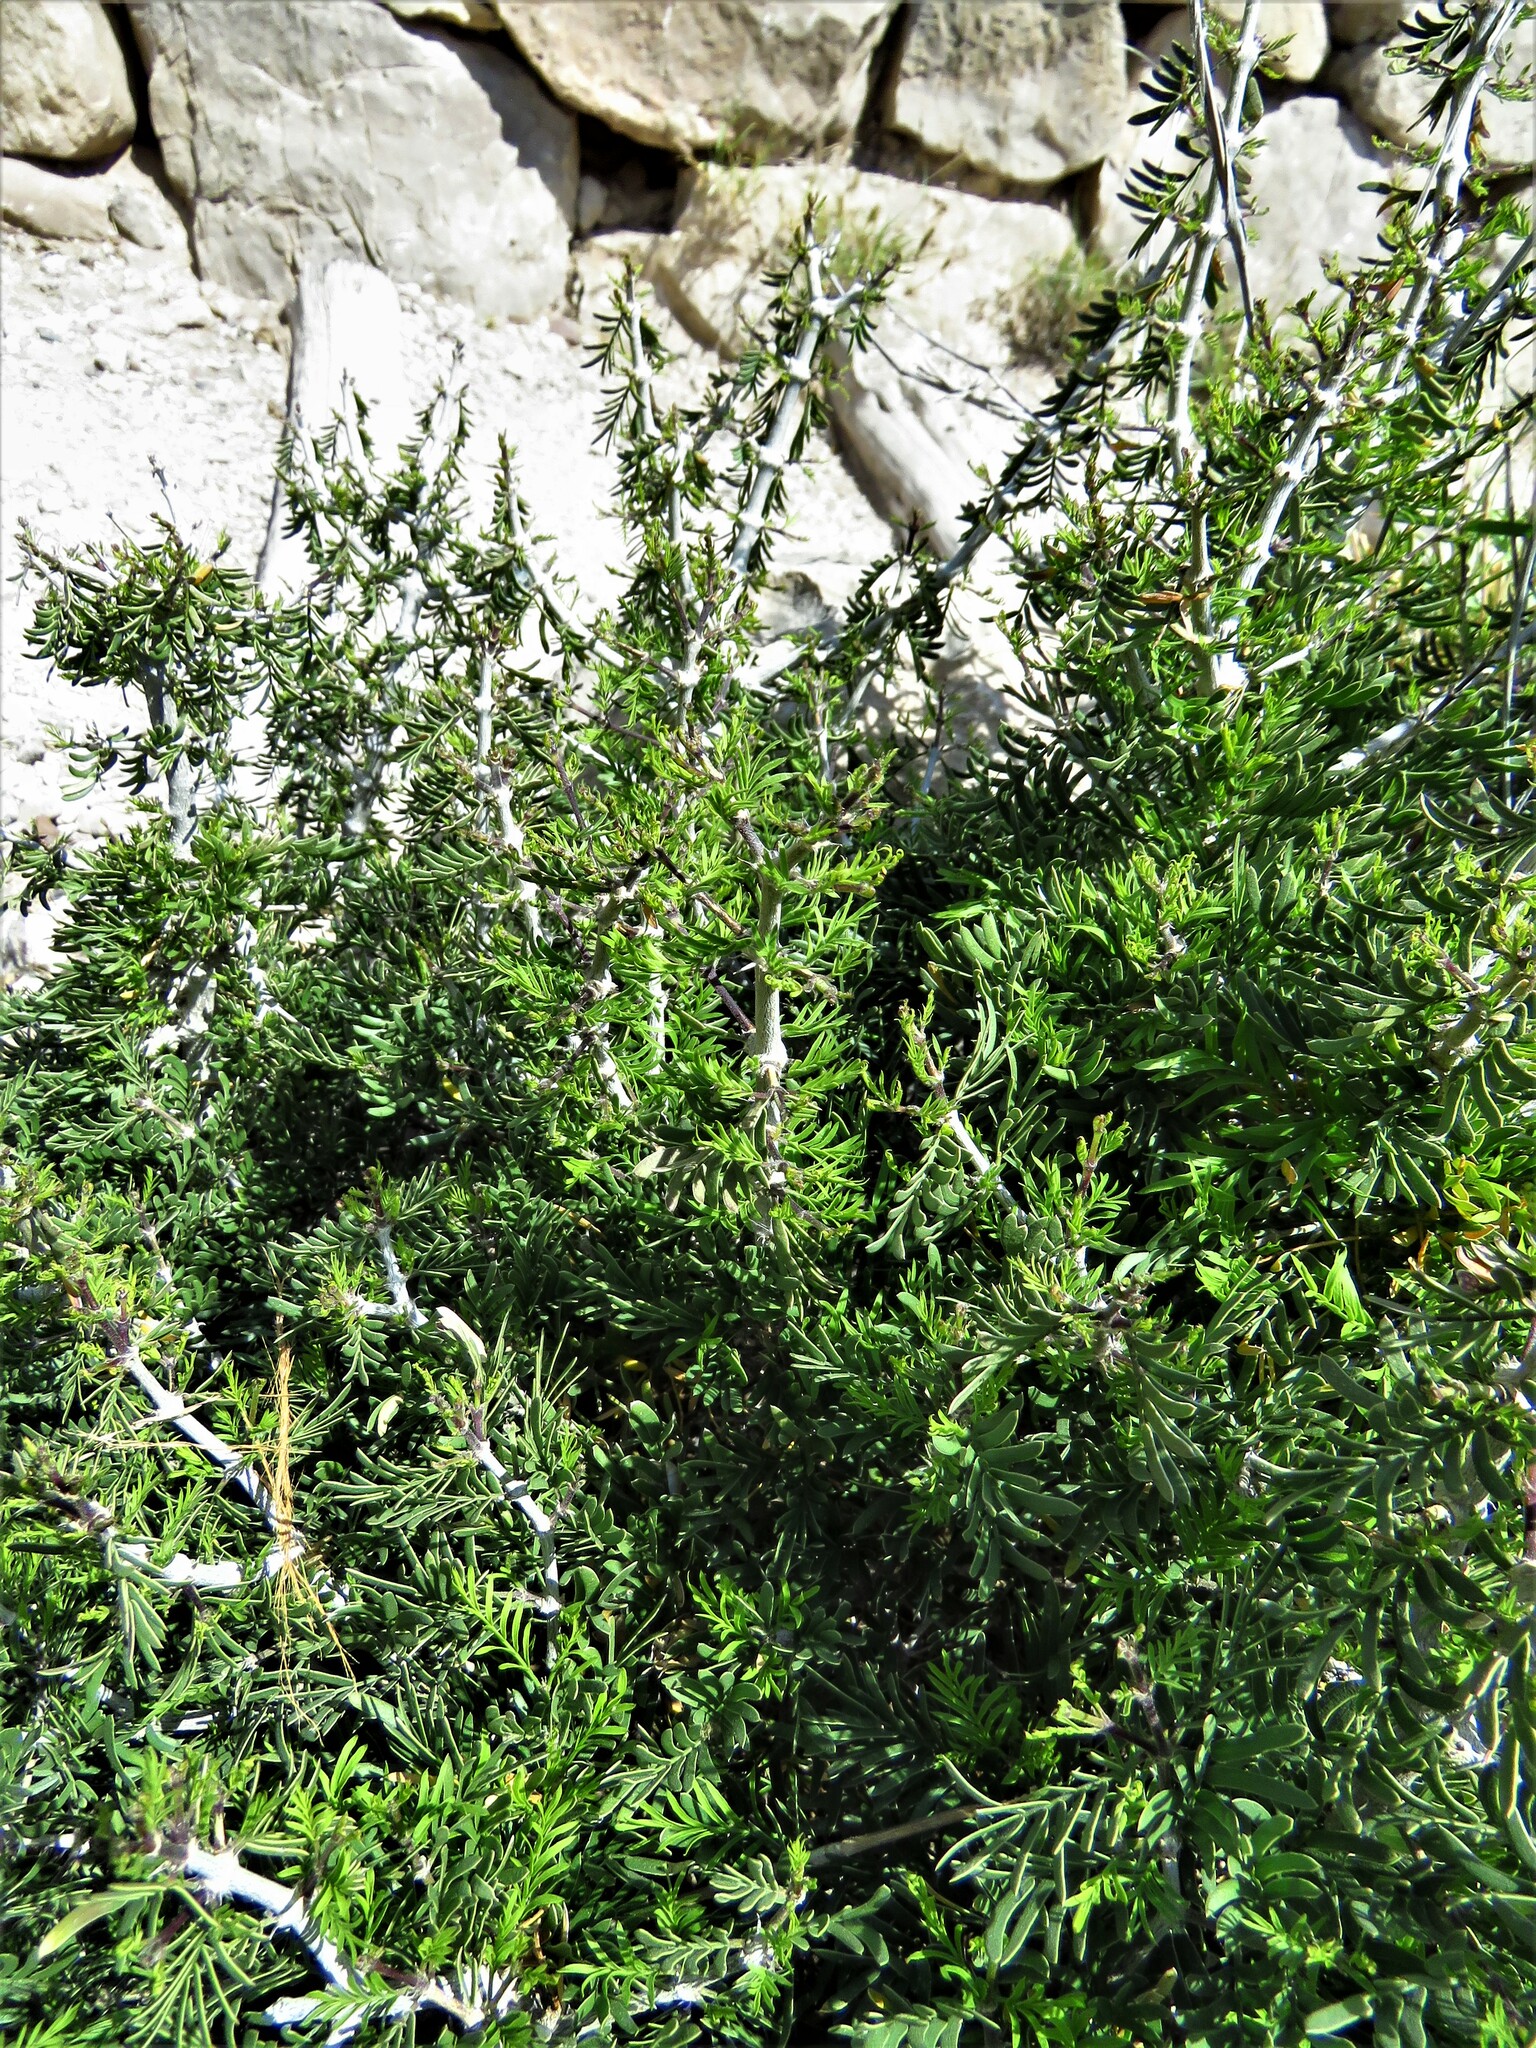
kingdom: Plantae
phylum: Tracheophyta
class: Magnoliopsida
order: Zygophyllales
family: Zygophyllaceae
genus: Porlieria
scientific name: Porlieria angustifolia
